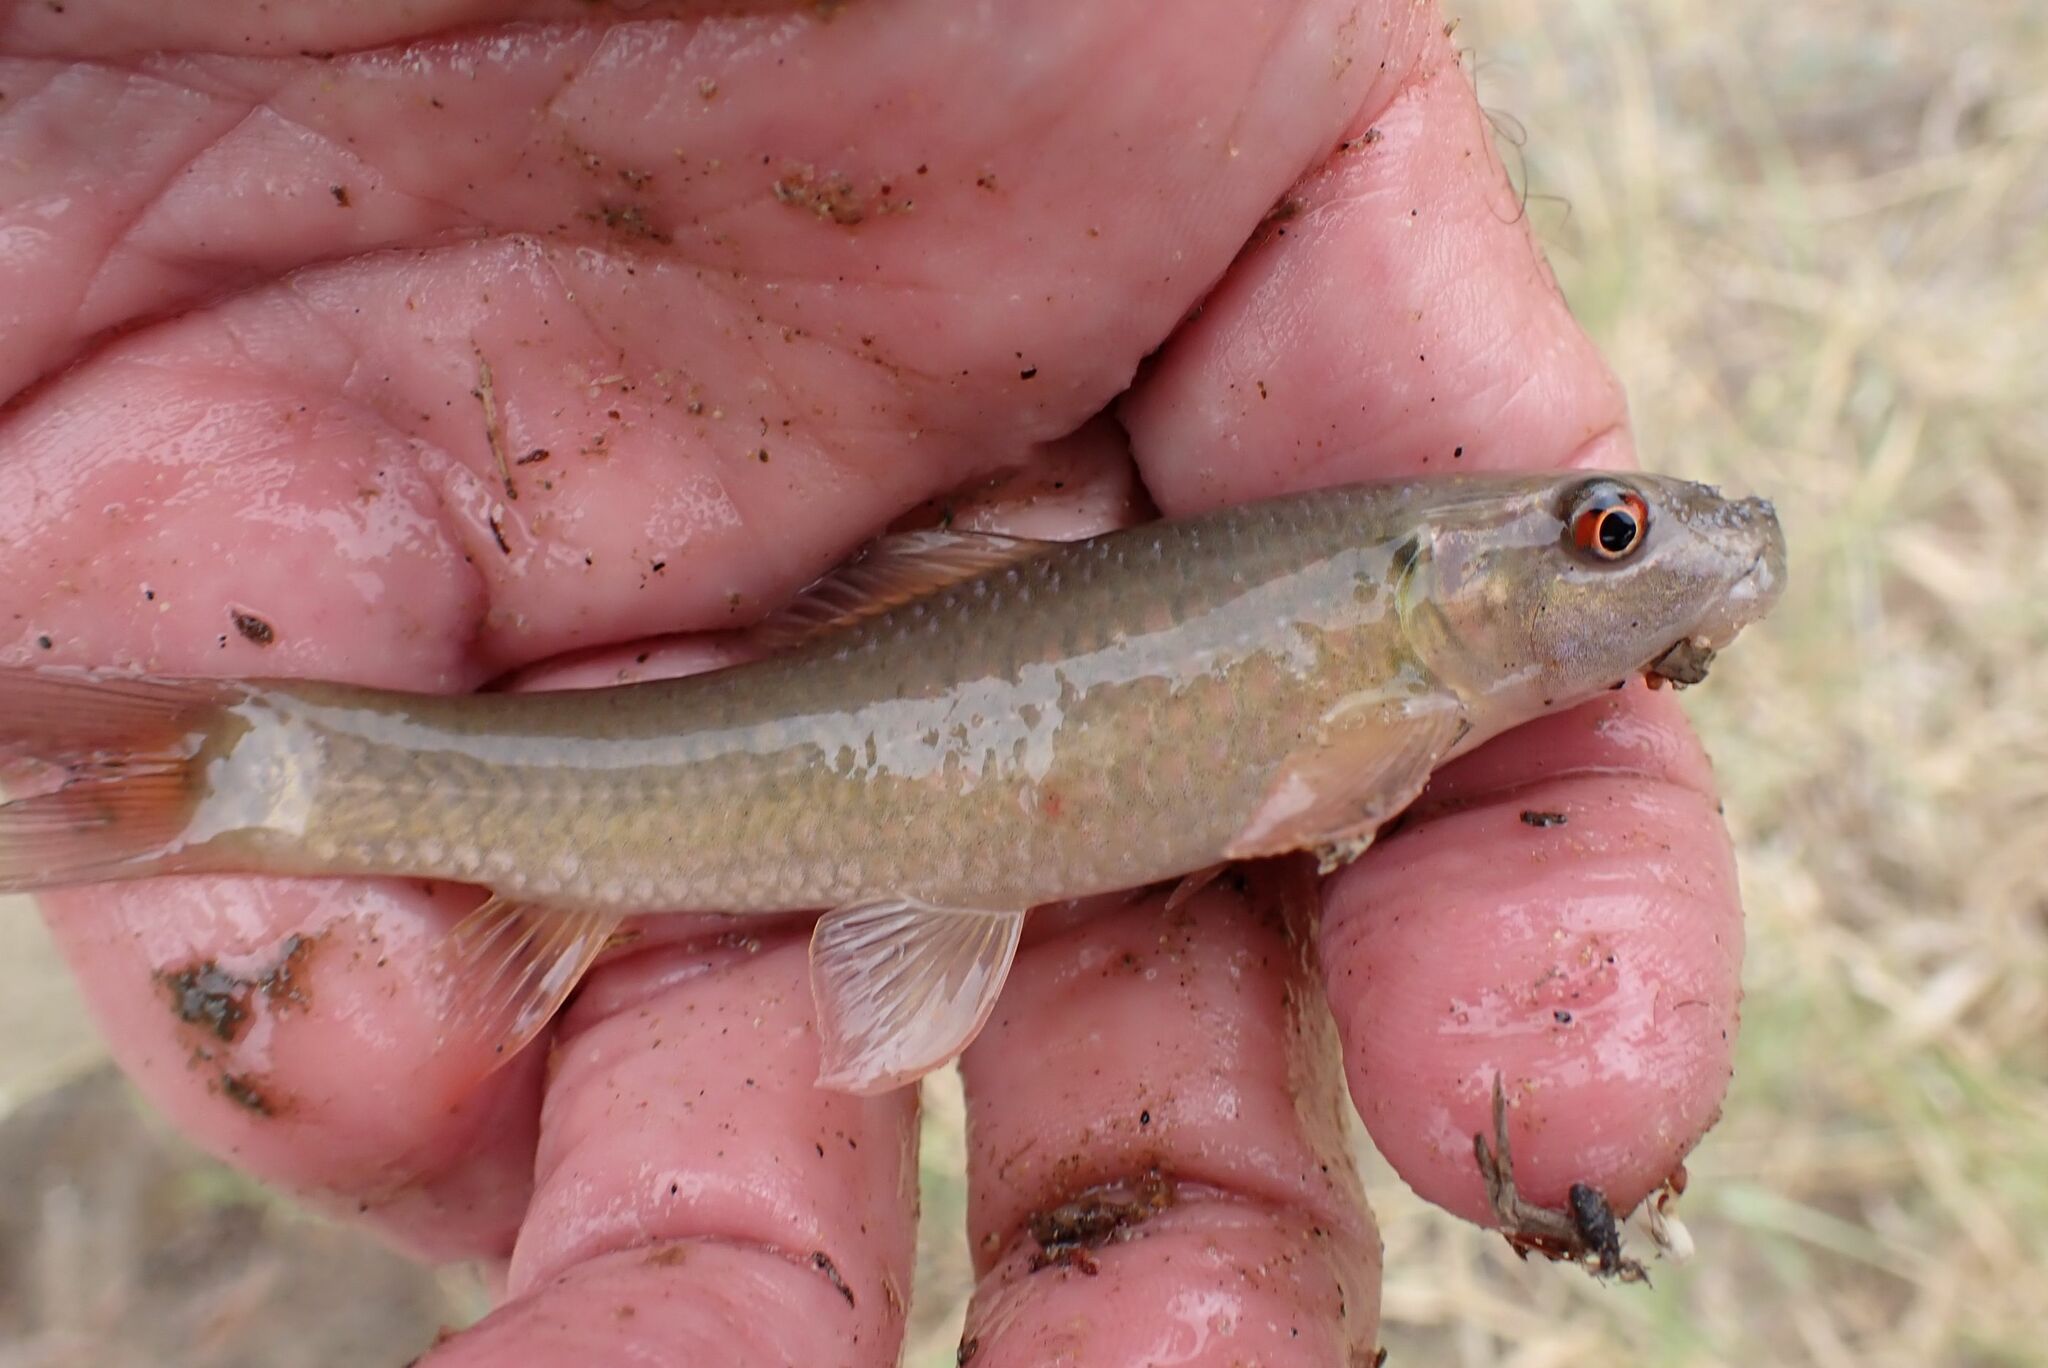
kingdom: Animalia
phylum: Chordata
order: Cypriniformes
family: Cyprinidae
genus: Labeo
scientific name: Labeo cylindricus
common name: Redeye labeo
